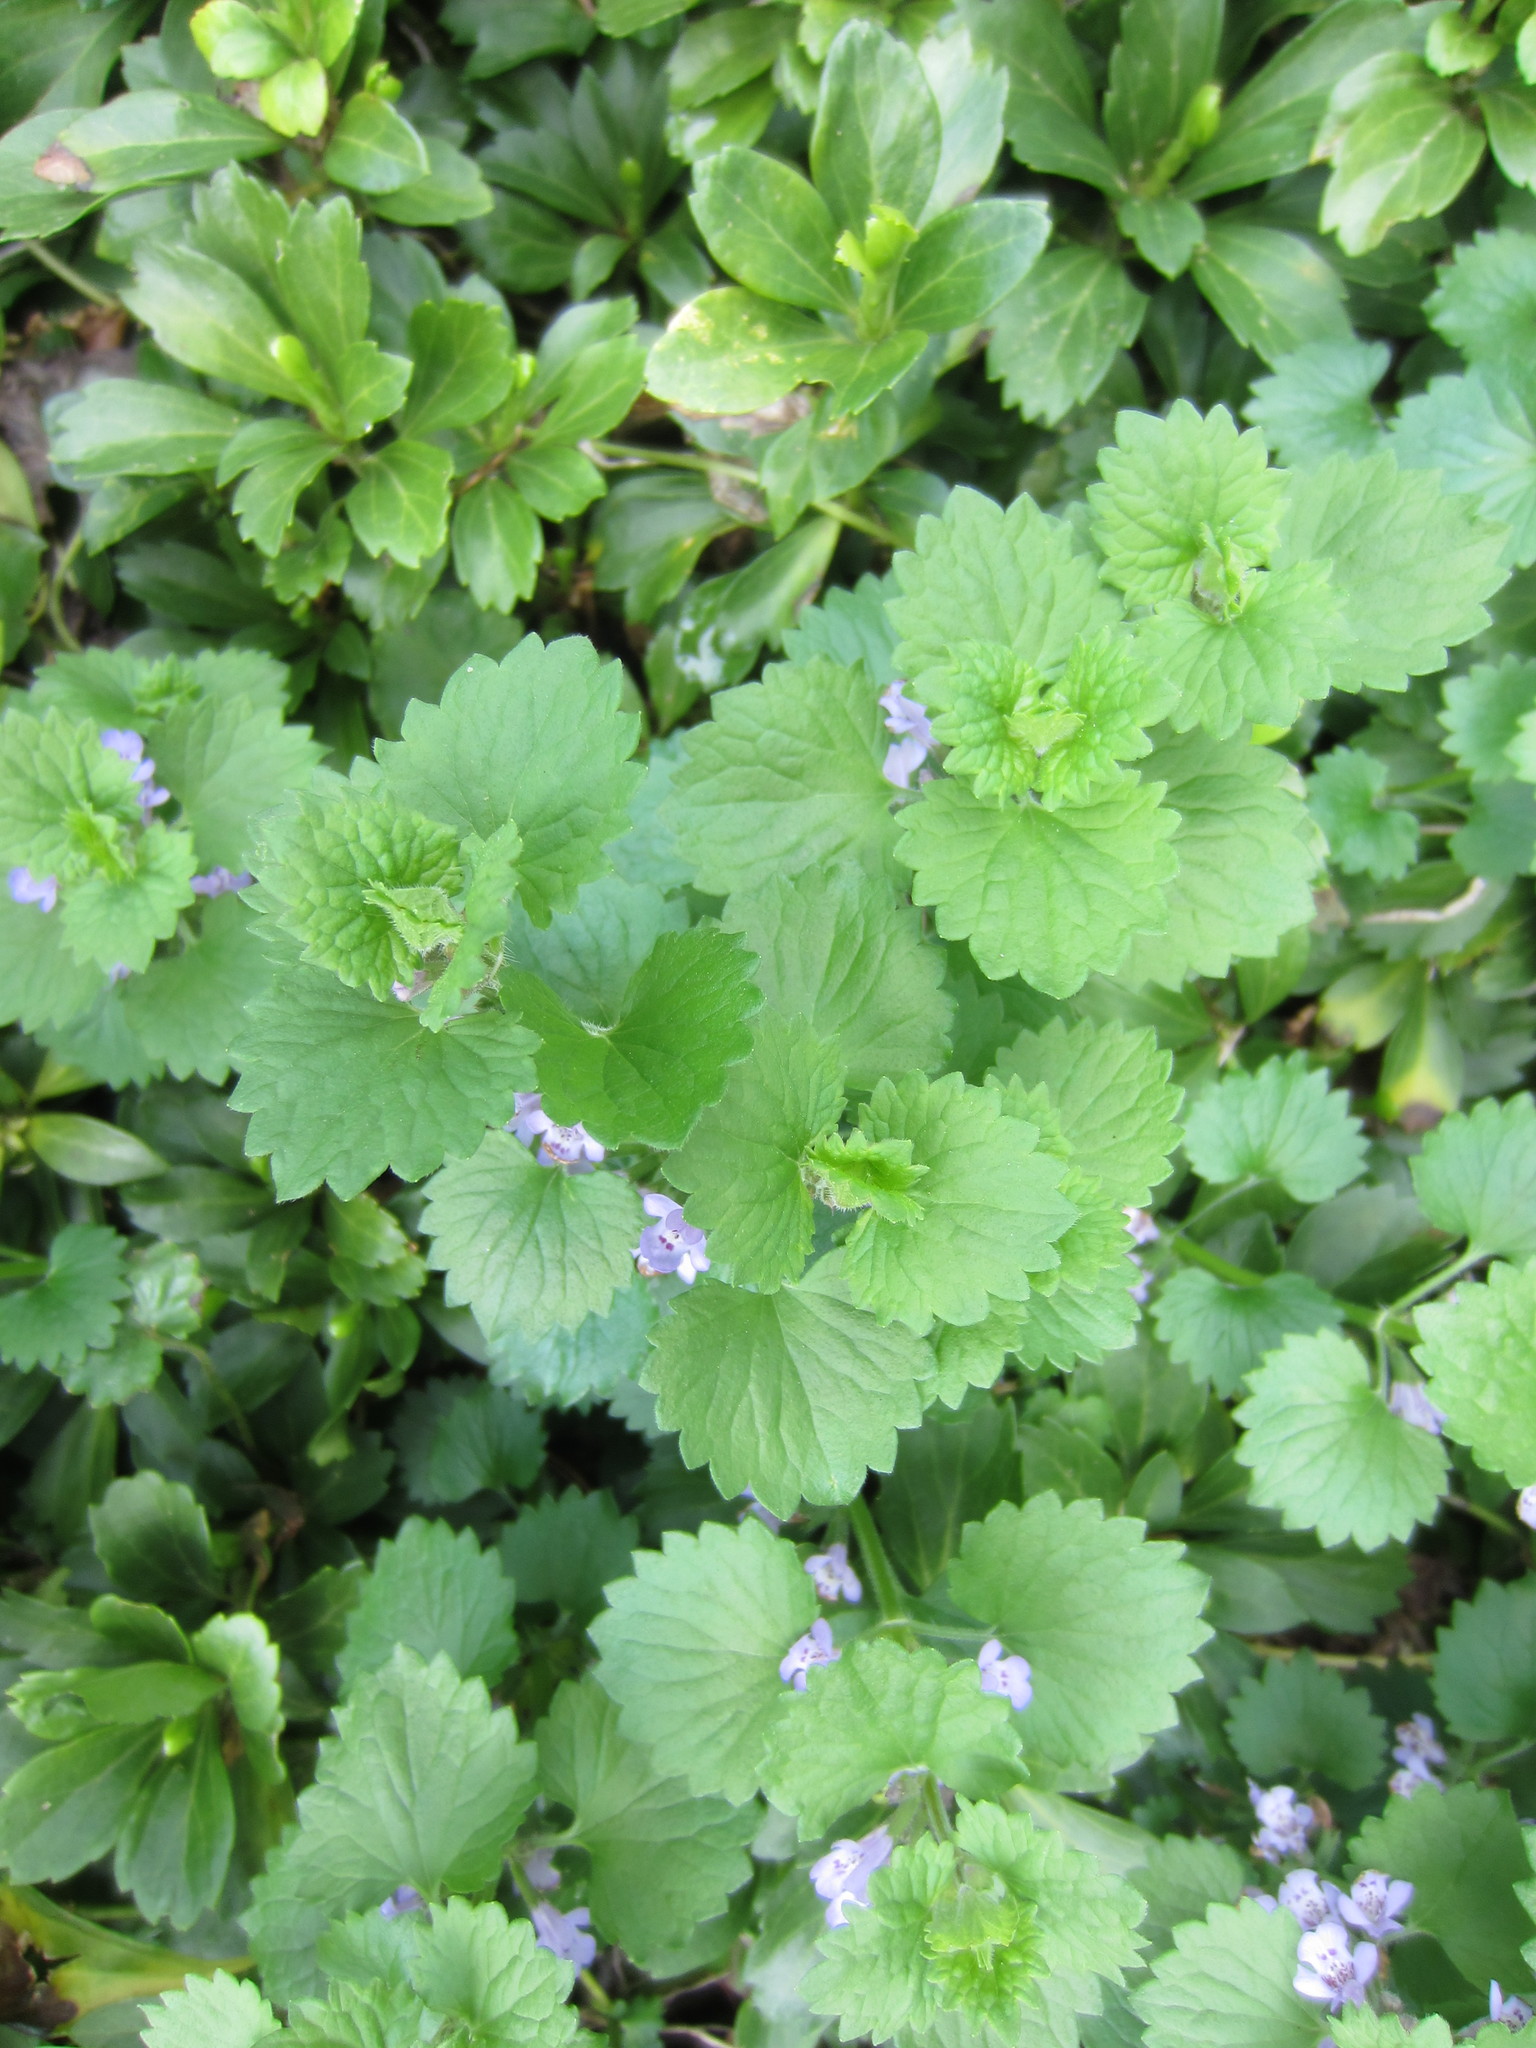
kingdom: Plantae
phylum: Tracheophyta
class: Magnoliopsida
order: Lamiales
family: Lamiaceae
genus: Glechoma
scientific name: Glechoma hederacea
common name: Ground ivy
